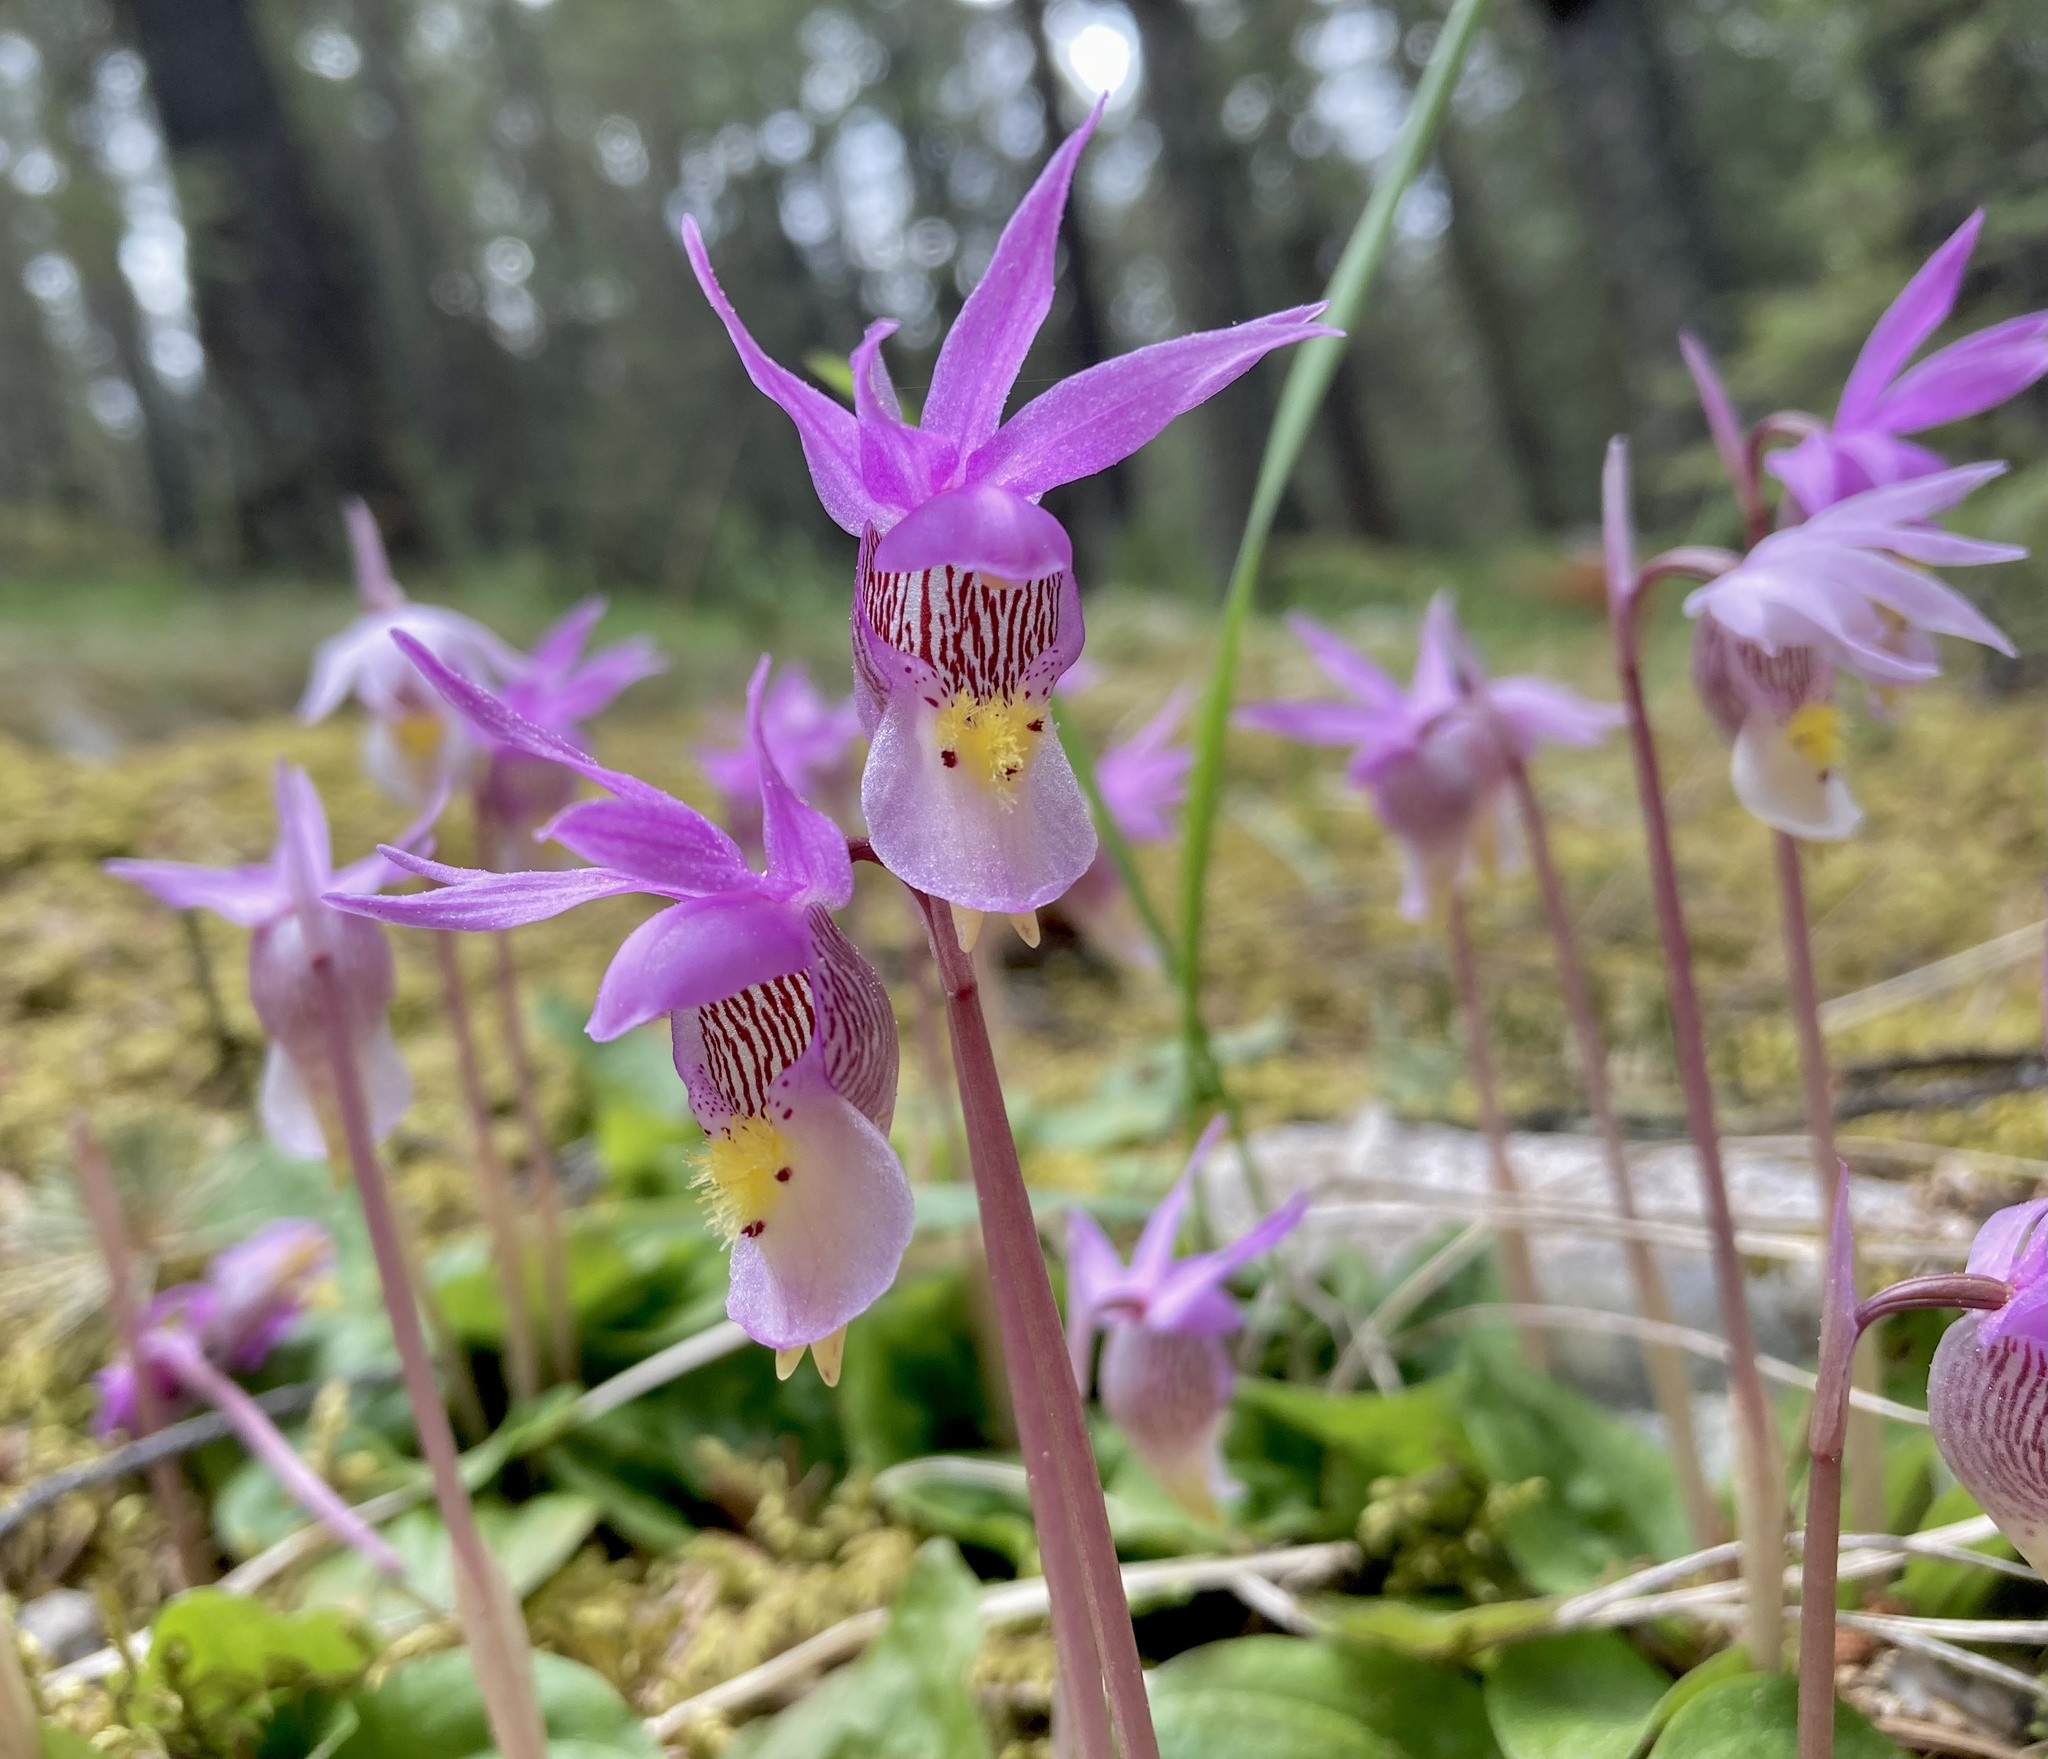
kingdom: Plantae
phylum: Tracheophyta
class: Liliopsida
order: Asparagales
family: Orchidaceae
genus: Calypso
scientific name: Calypso bulbosa
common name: Calypso
